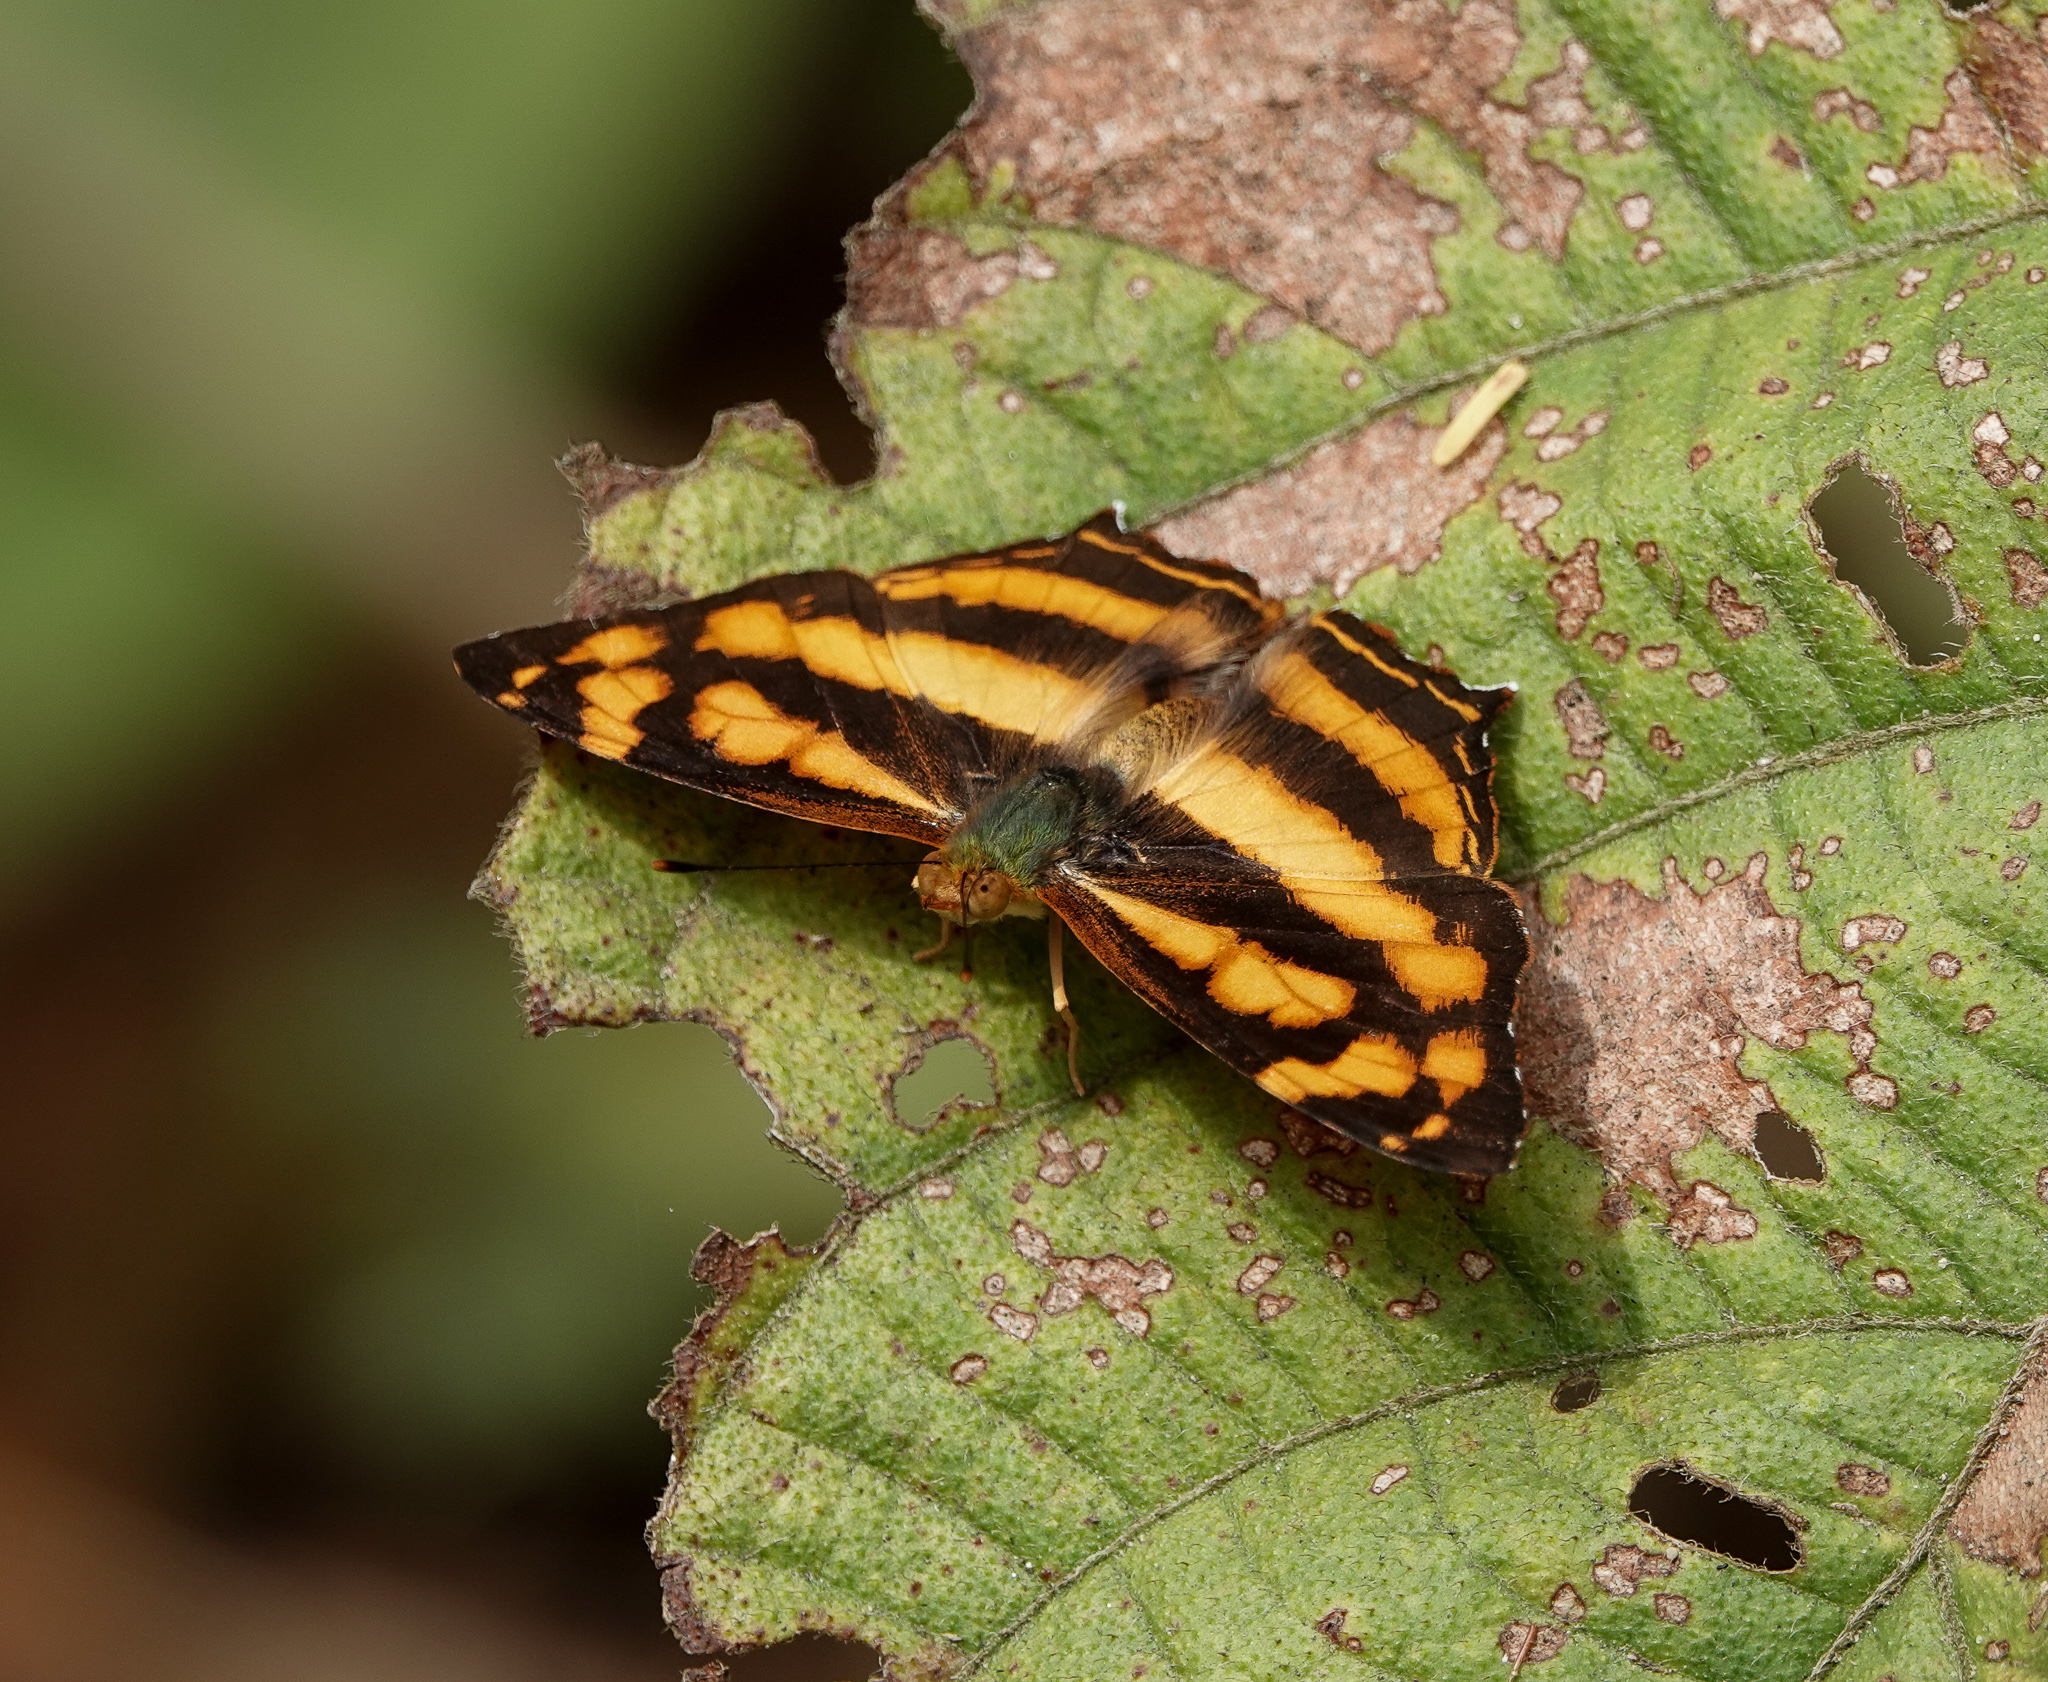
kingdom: Animalia
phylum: Arthropoda
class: Insecta
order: Lepidoptera
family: Nymphalidae
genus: Symbrenthia
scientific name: Symbrenthia hypselis
